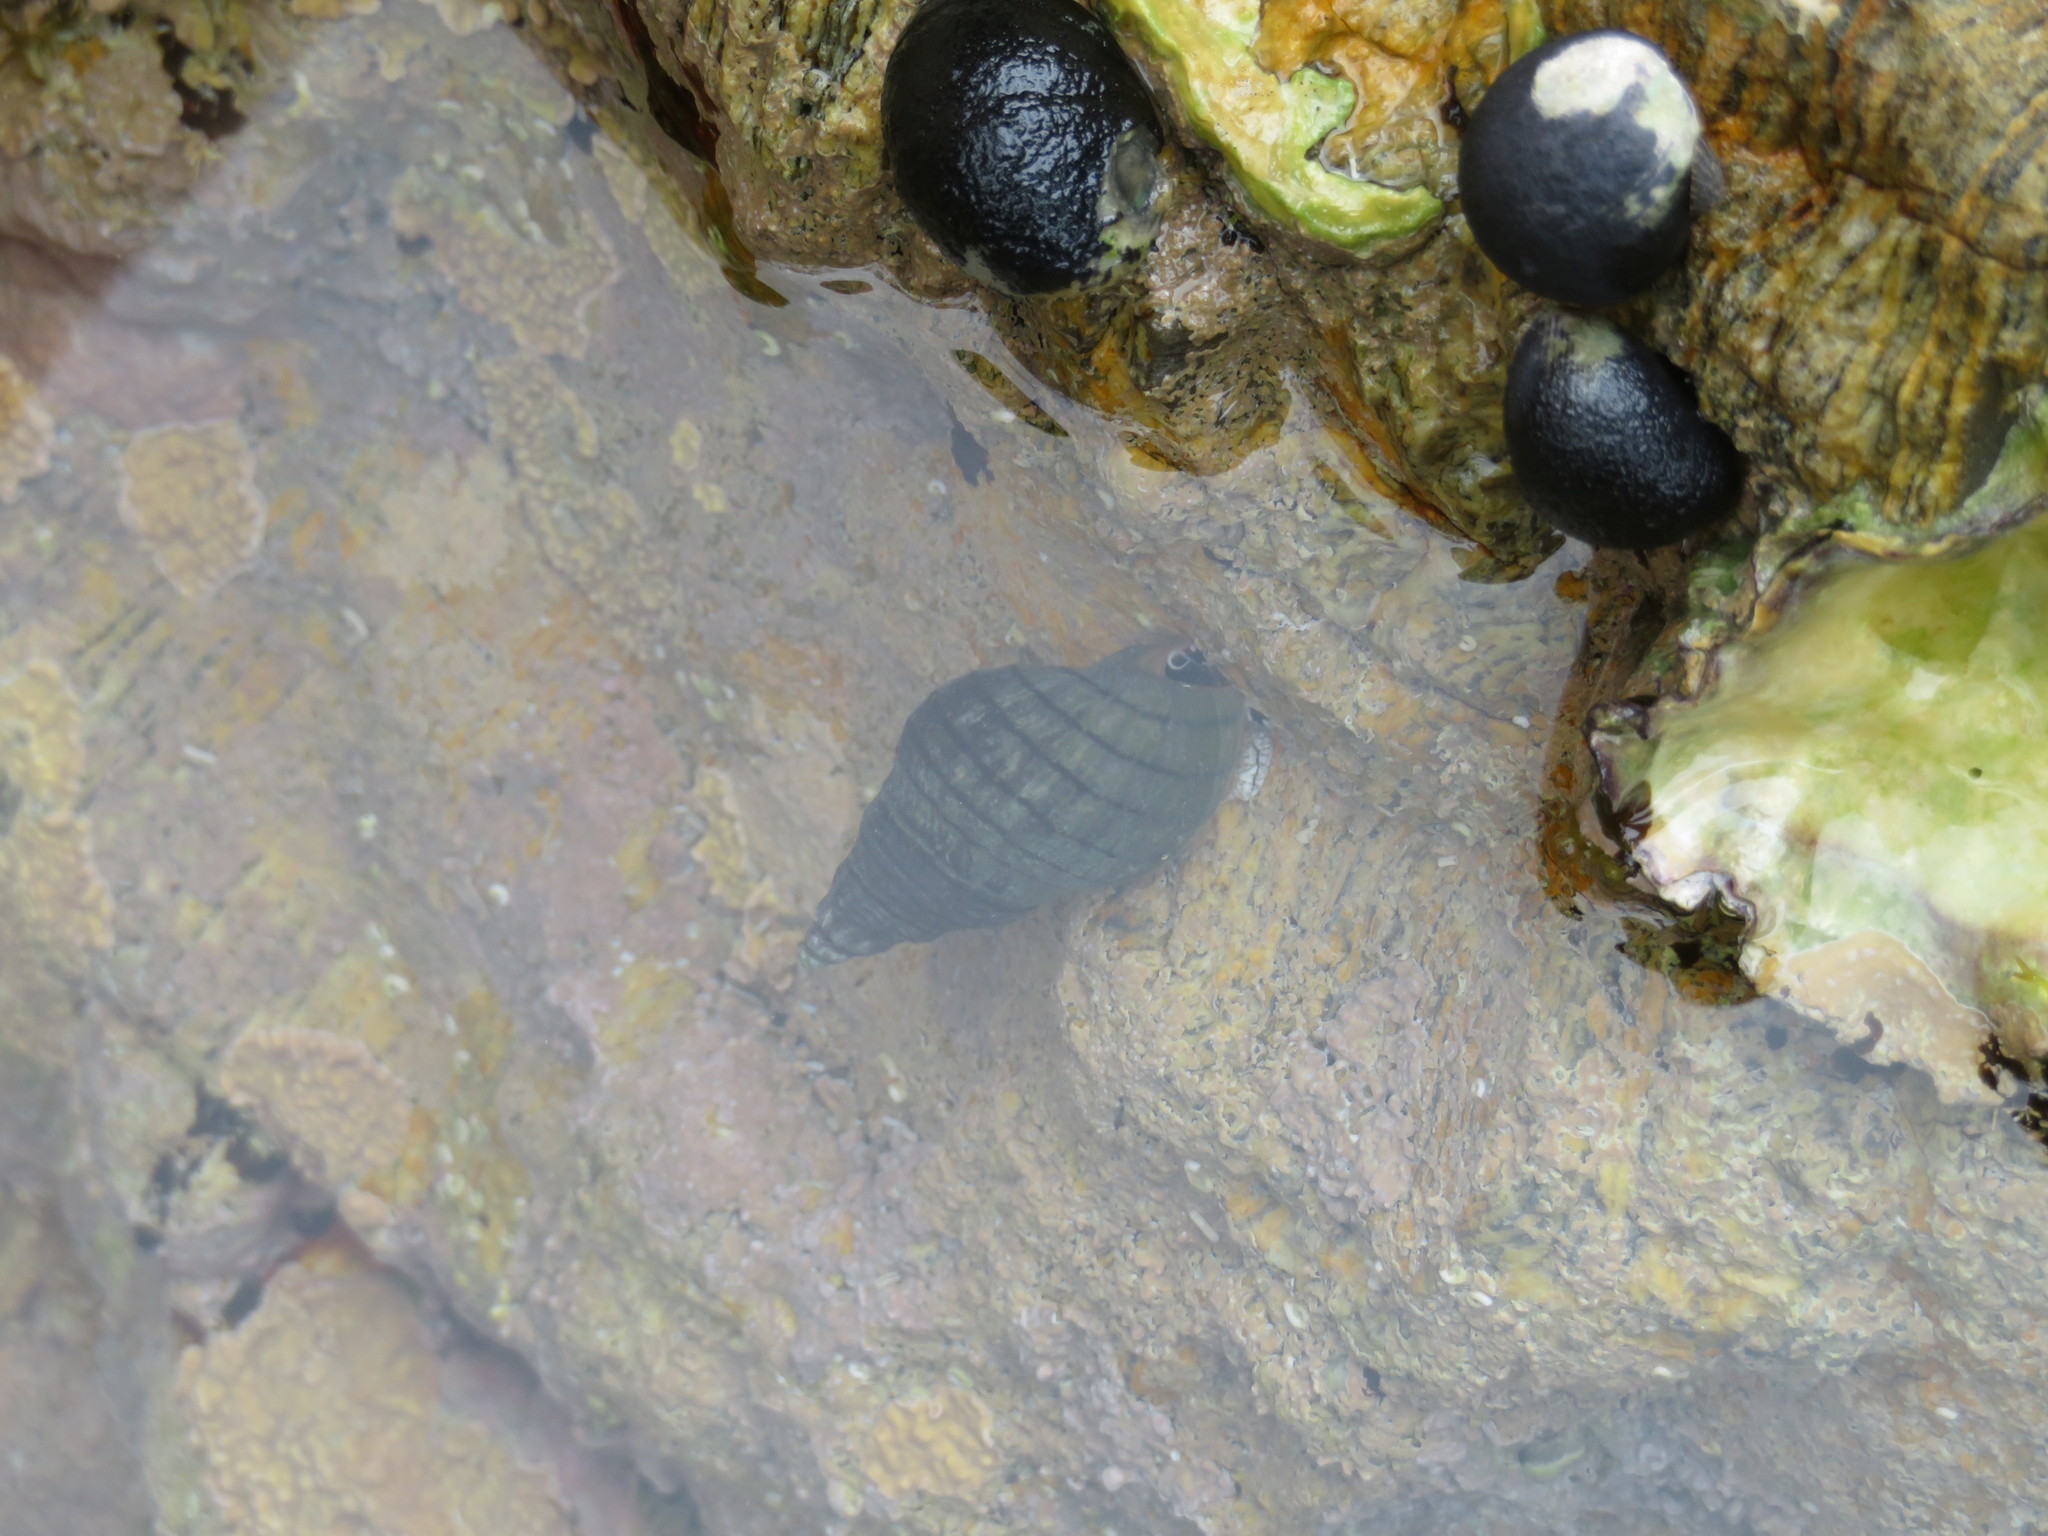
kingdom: Animalia
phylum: Mollusca
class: Gastropoda
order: Neogastropoda
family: Cominellidae
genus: Cominella
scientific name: Cominella virgata
